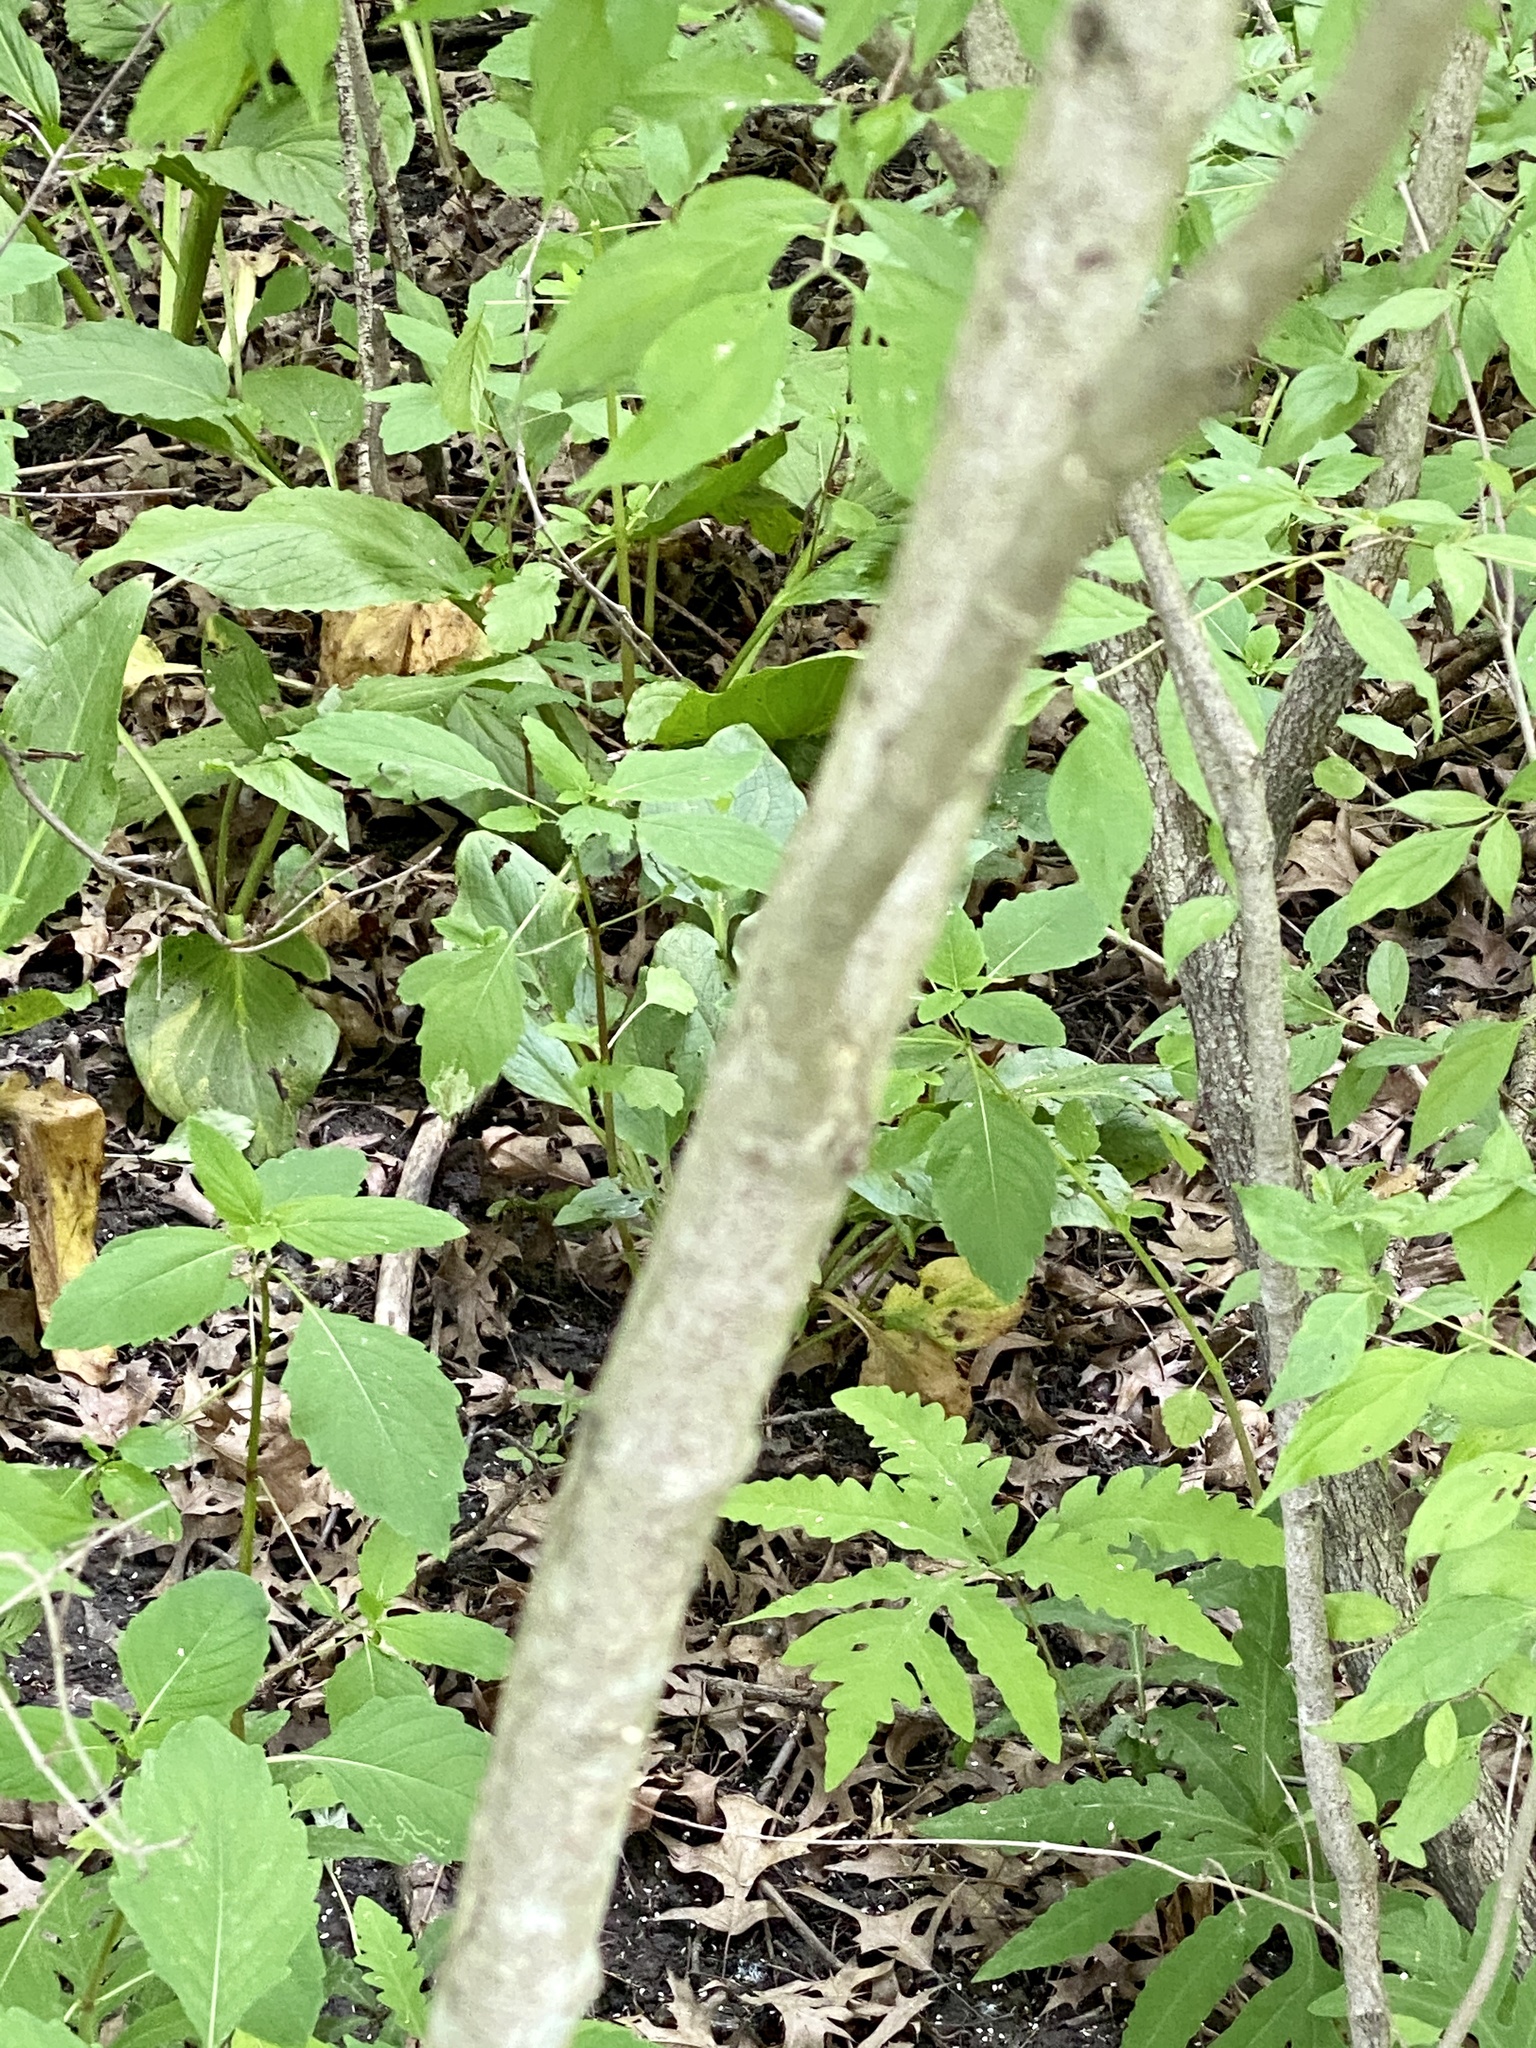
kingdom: Plantae
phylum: Tracheophyta
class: Magnoliopsida
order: Cornales
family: Cornaceae
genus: Cornus
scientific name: Cornus racemosa
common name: Panicled dogwood
